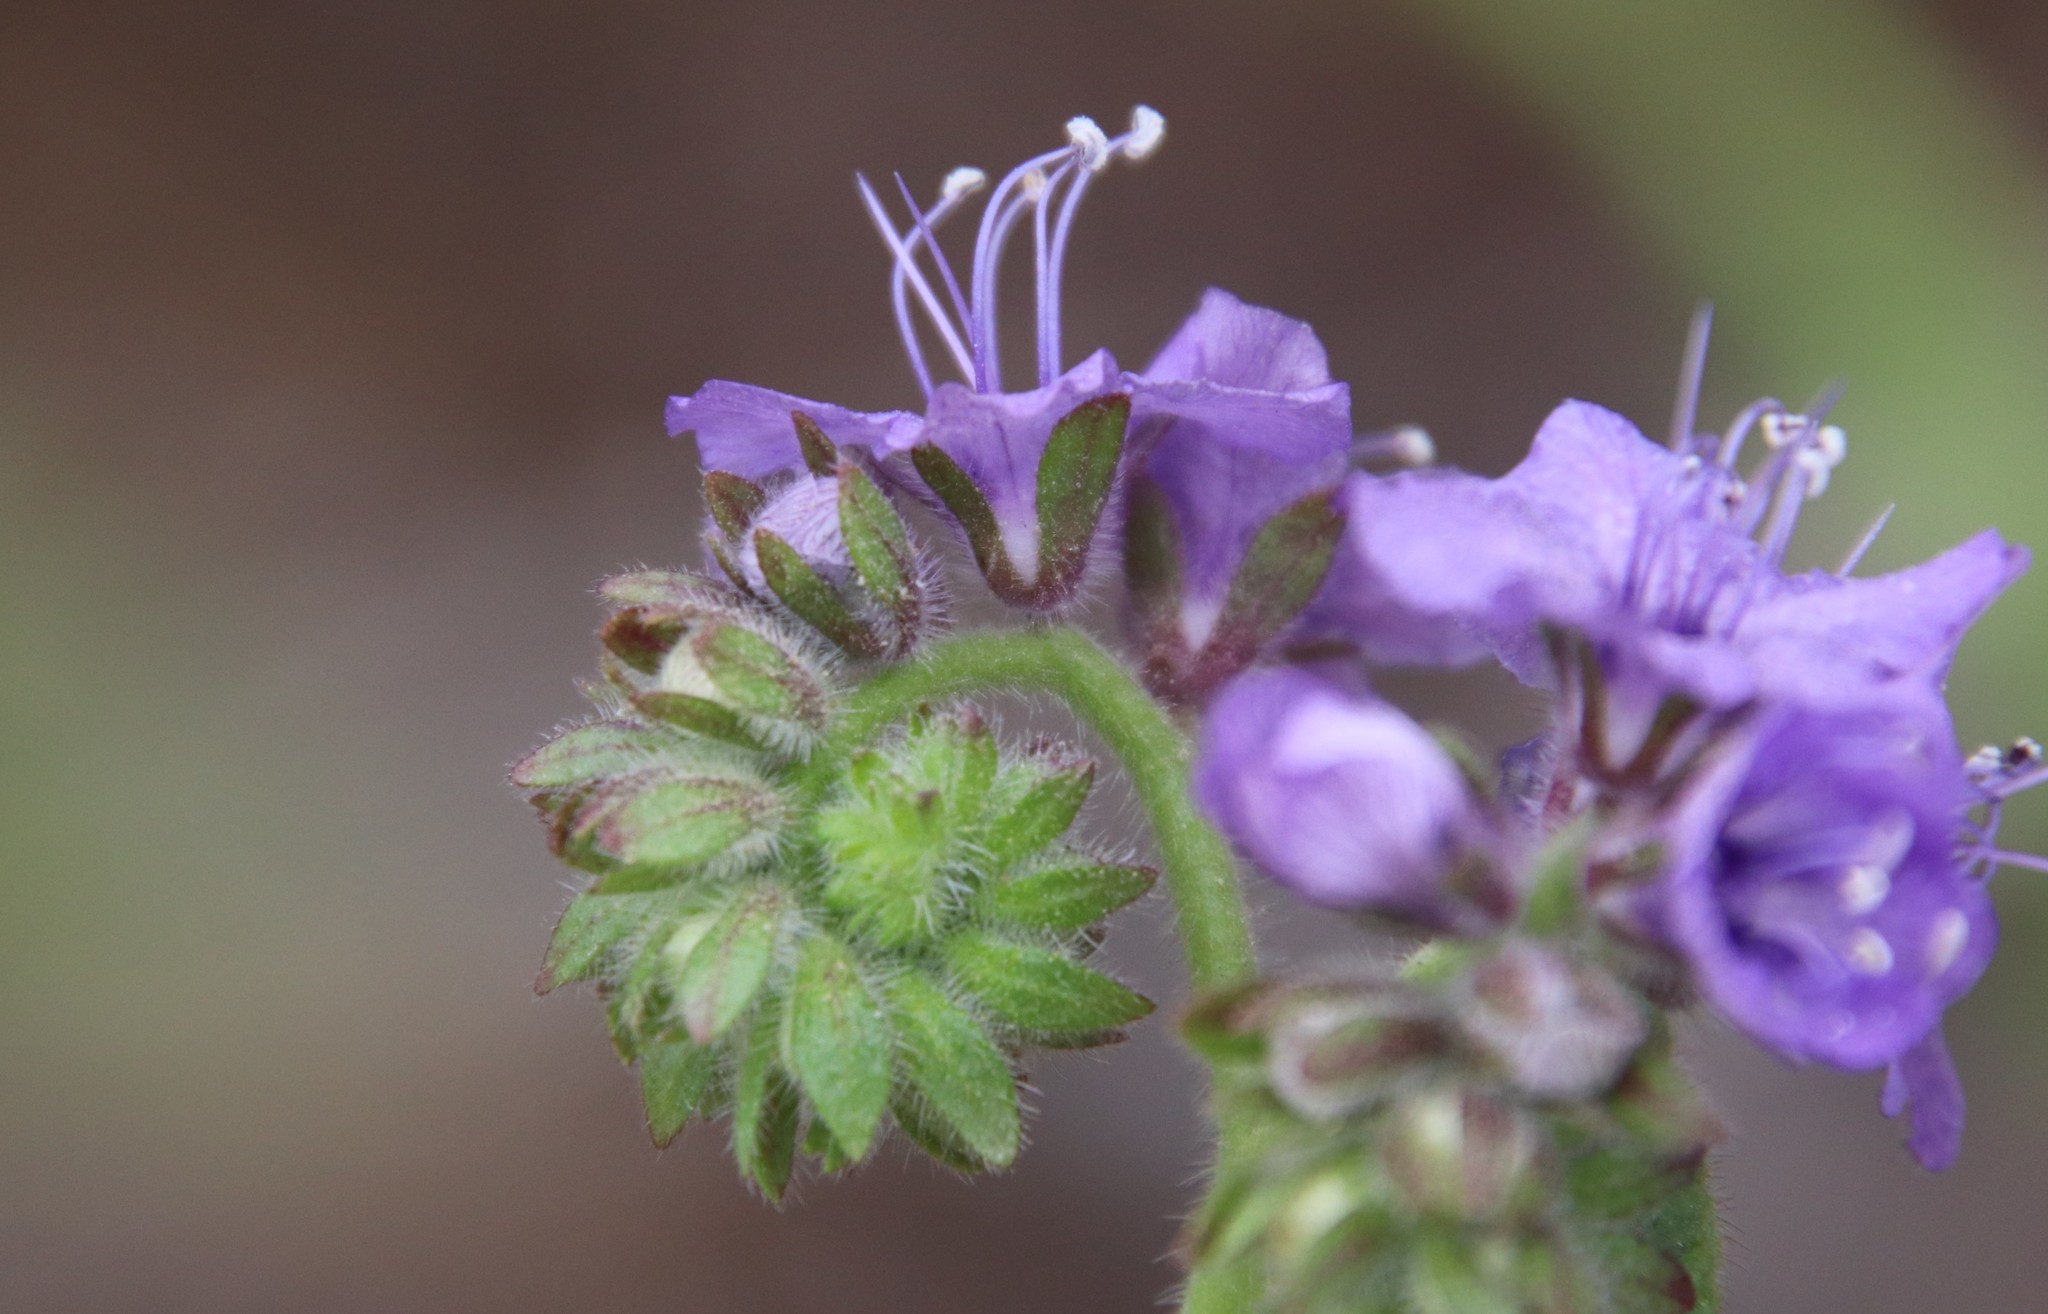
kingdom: Plantae
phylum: Tracheophyta
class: Magnoliopsida
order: Boraginales
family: Hydrophyllaceae
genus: Phacelia
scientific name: Phacelia distans
